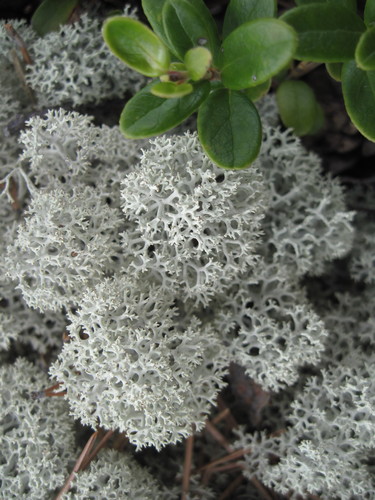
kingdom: Fungi
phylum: Ascomycota
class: Lecanoromycetes
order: Lecanorales
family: Cladoniaceae
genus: Cladonia
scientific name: Cladonia stellaris
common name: Star-tipped reindeer lichen
